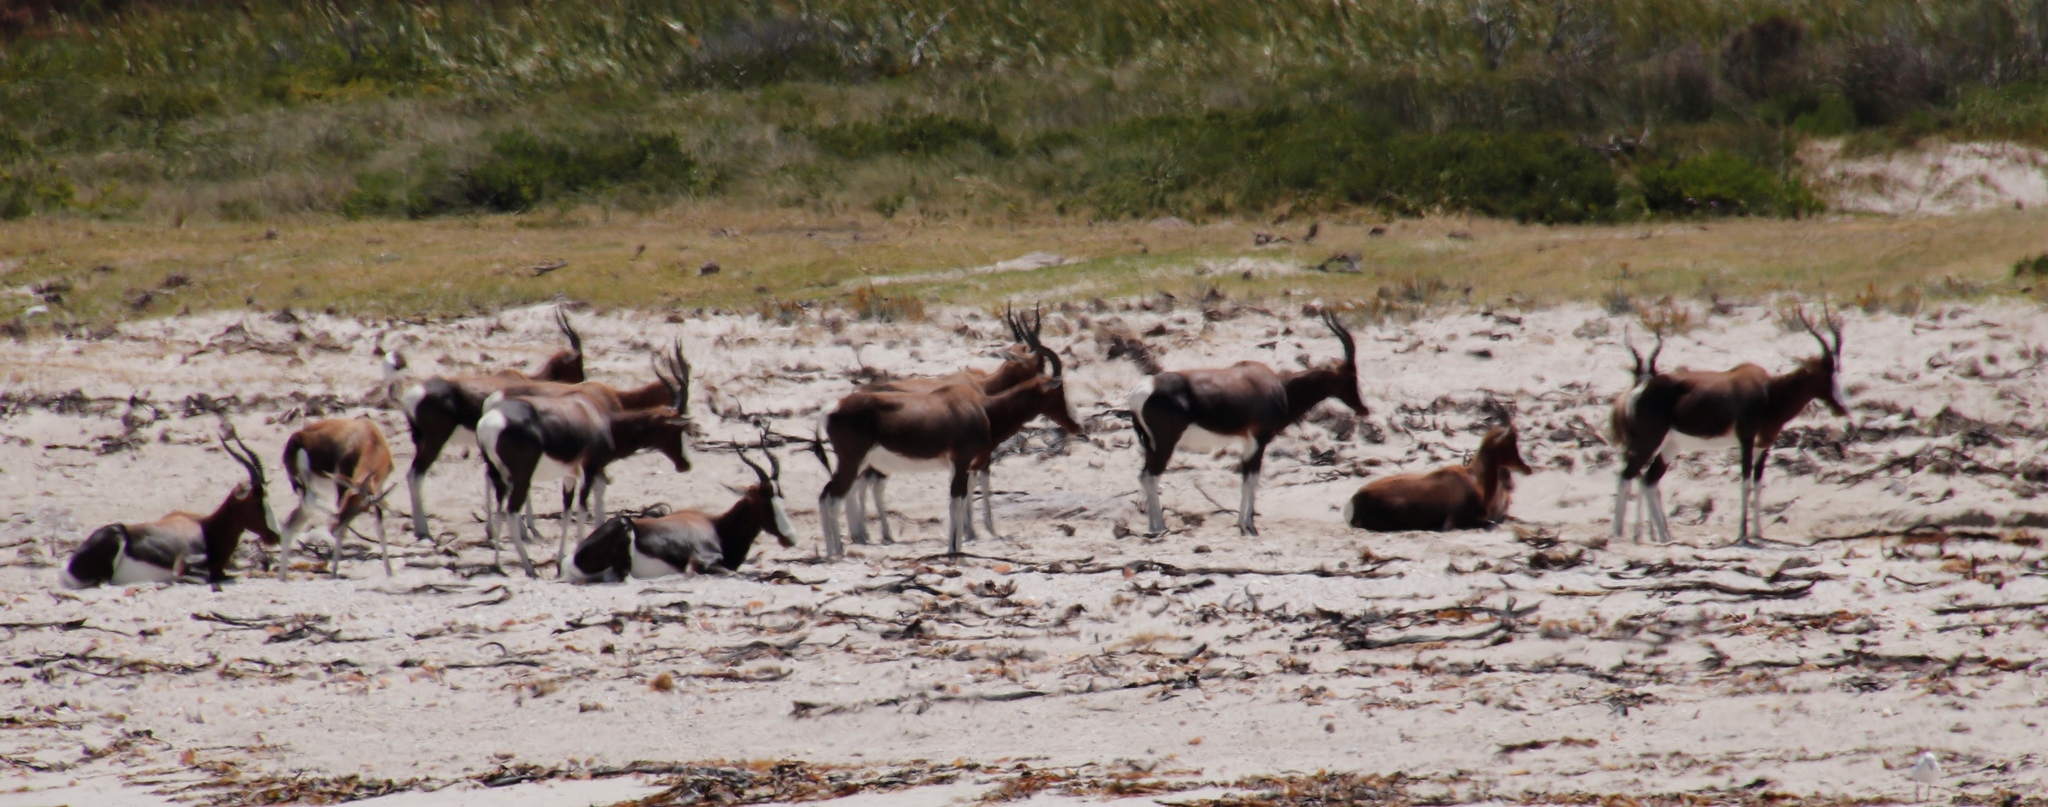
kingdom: Animalia
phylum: Chordata
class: Mammalia
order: Artiodactyla
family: Bovidae
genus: Damaliscus
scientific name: Damaliscus pygargus
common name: Bontebok
